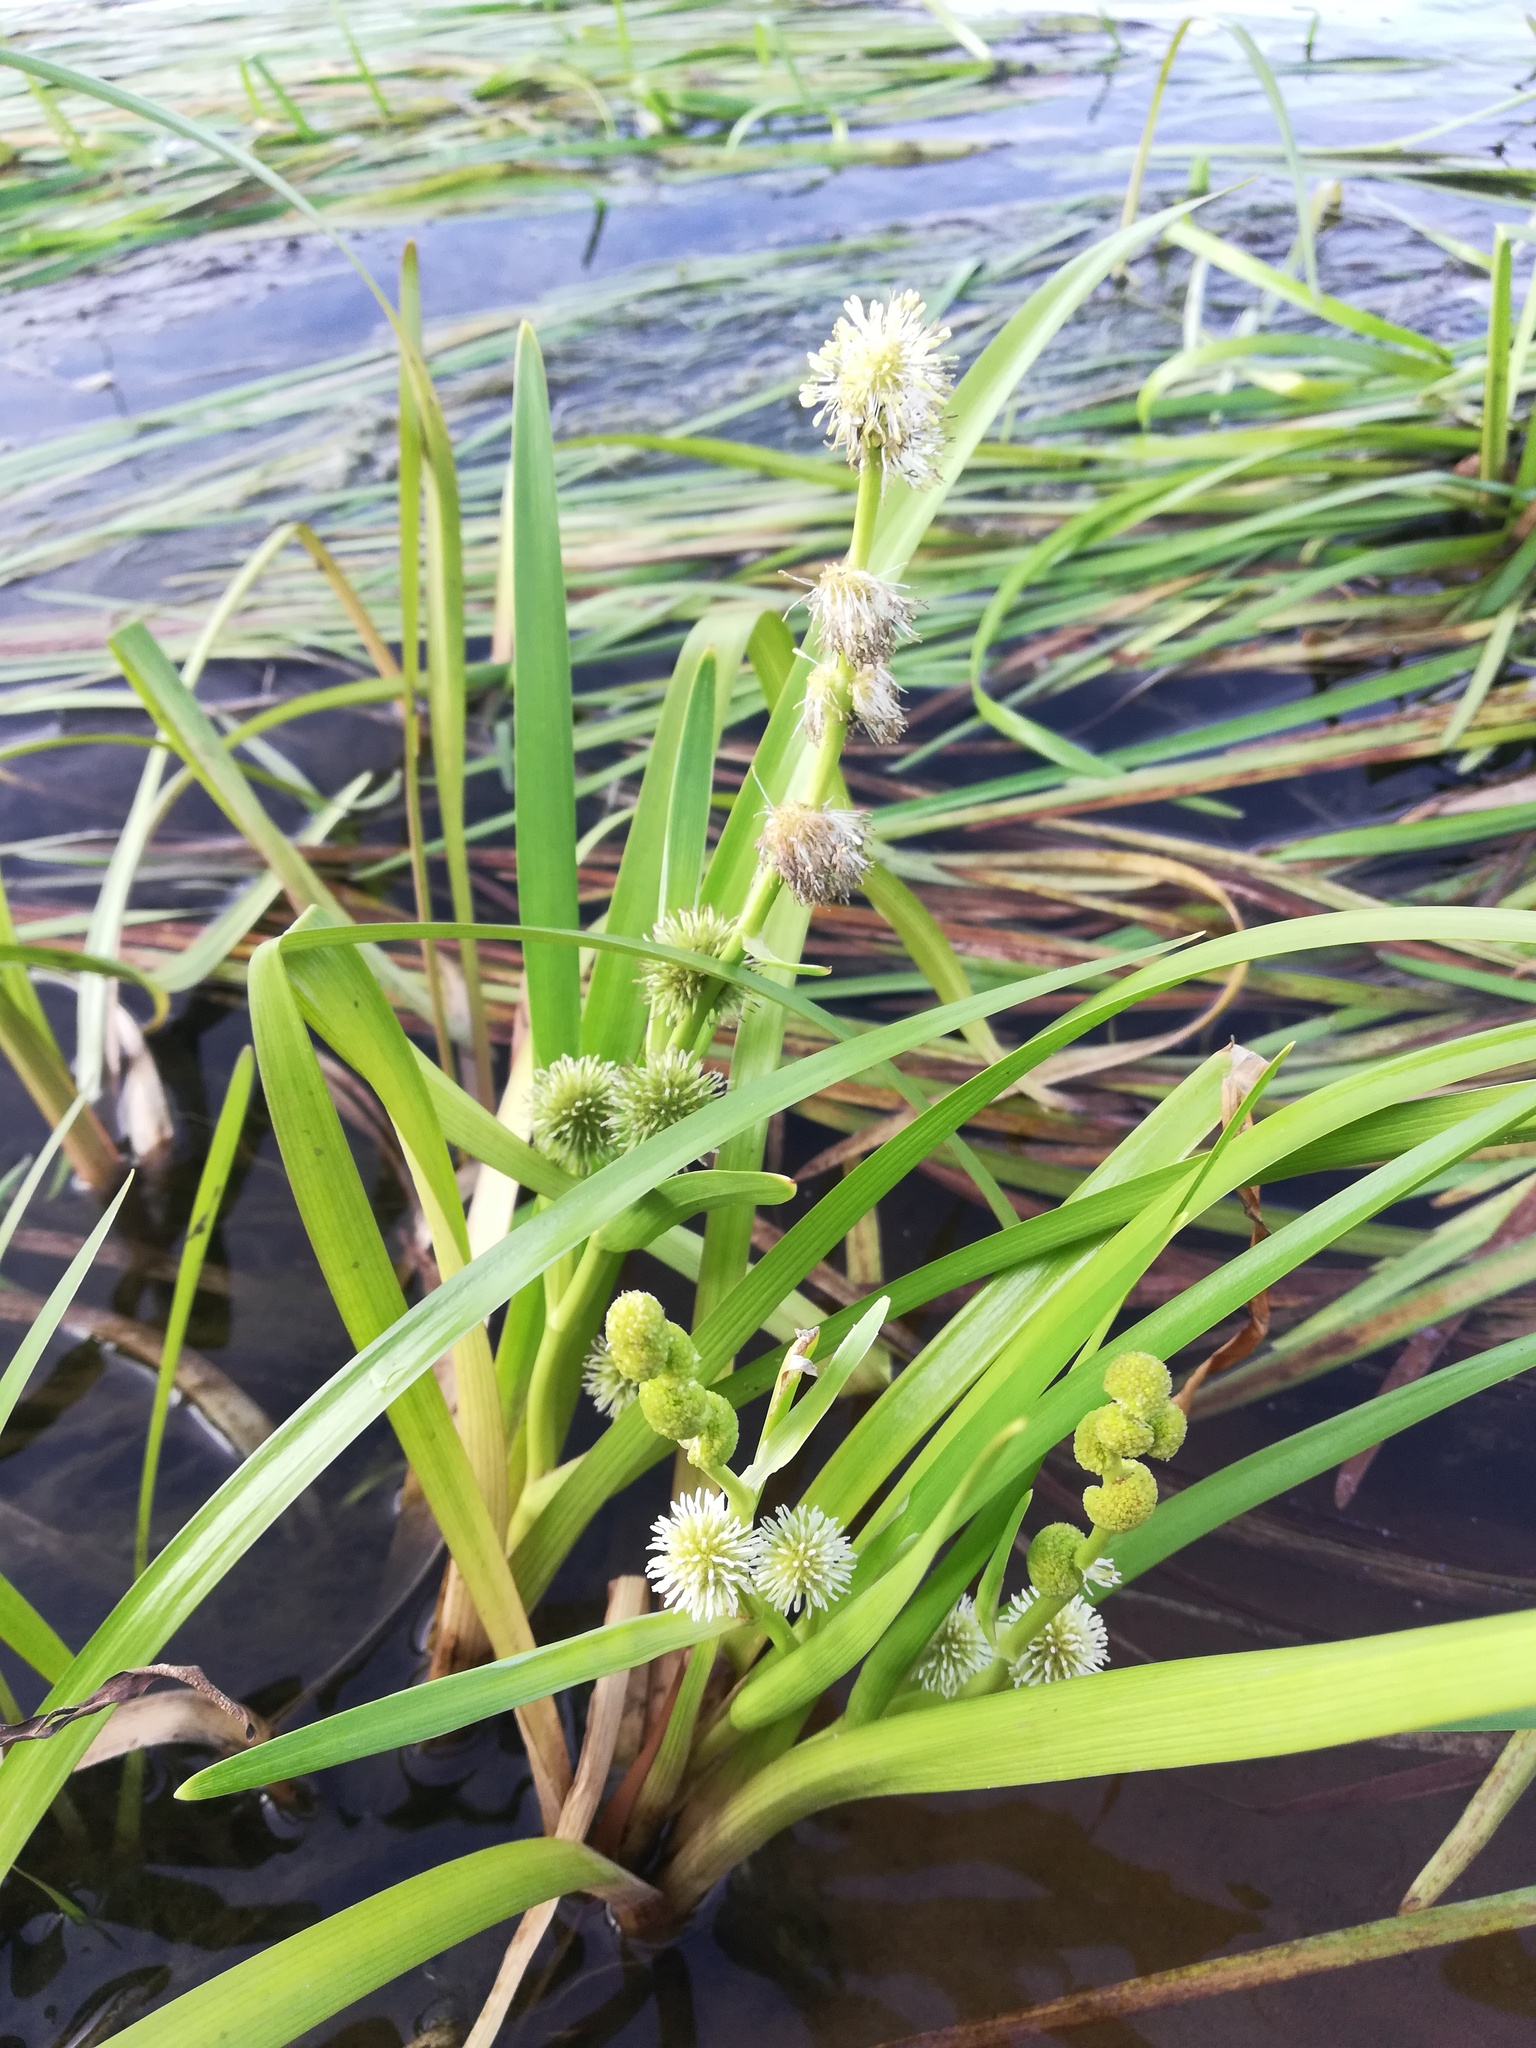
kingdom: Plantae
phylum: Tracheophyta
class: Liliopsida
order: Poales
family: Typhaceae
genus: Sparganium
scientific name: Sparganium emersum
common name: Unbranched bur-reed
